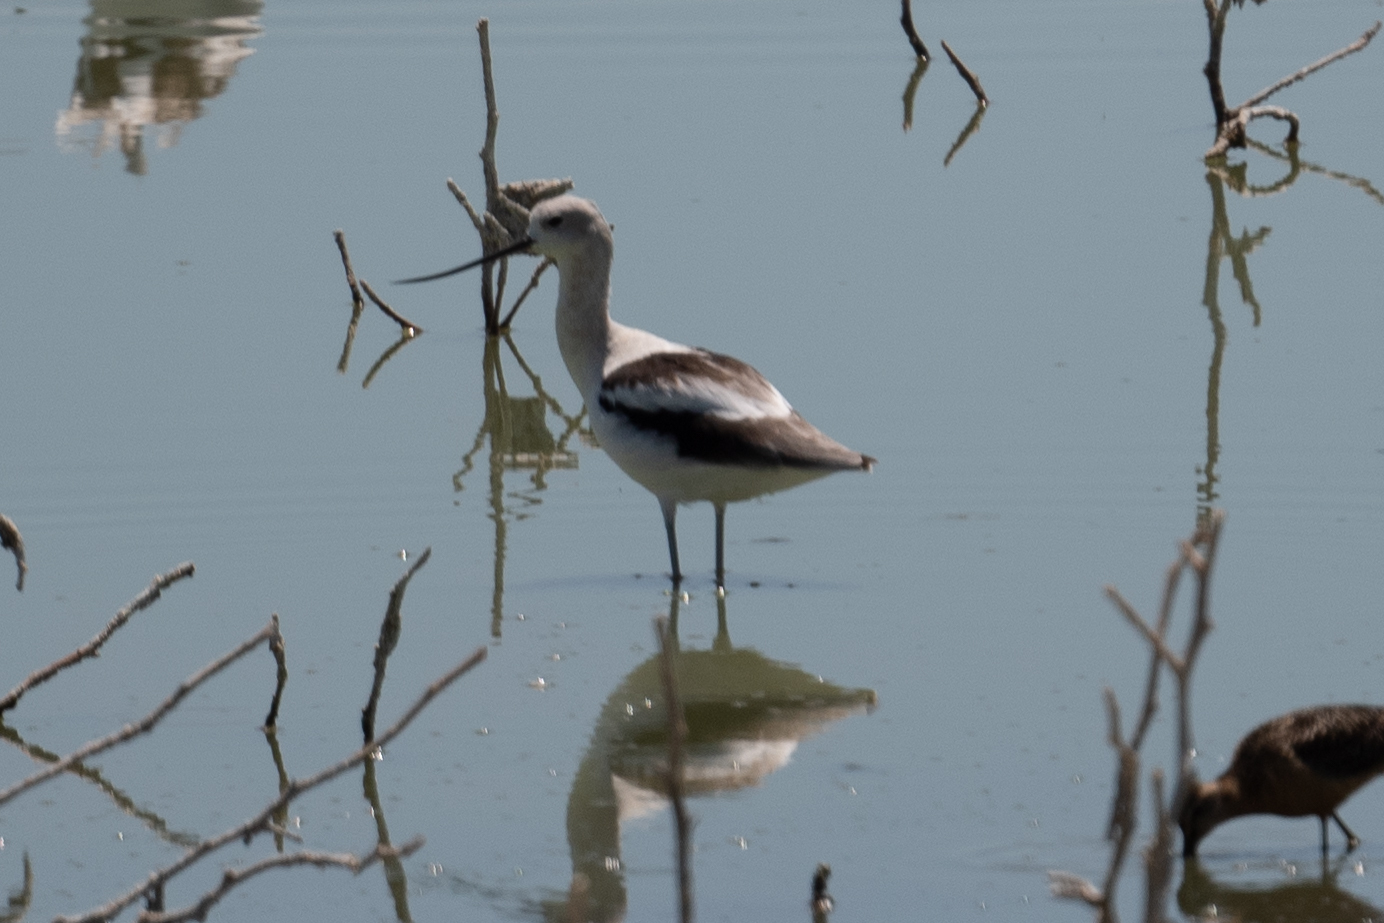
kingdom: Animalia
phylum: Chordata
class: Aves
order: Charadriiformes
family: Recurvirostridae
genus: Recurvirostra
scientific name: Recurvirostra americana
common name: American avocet
